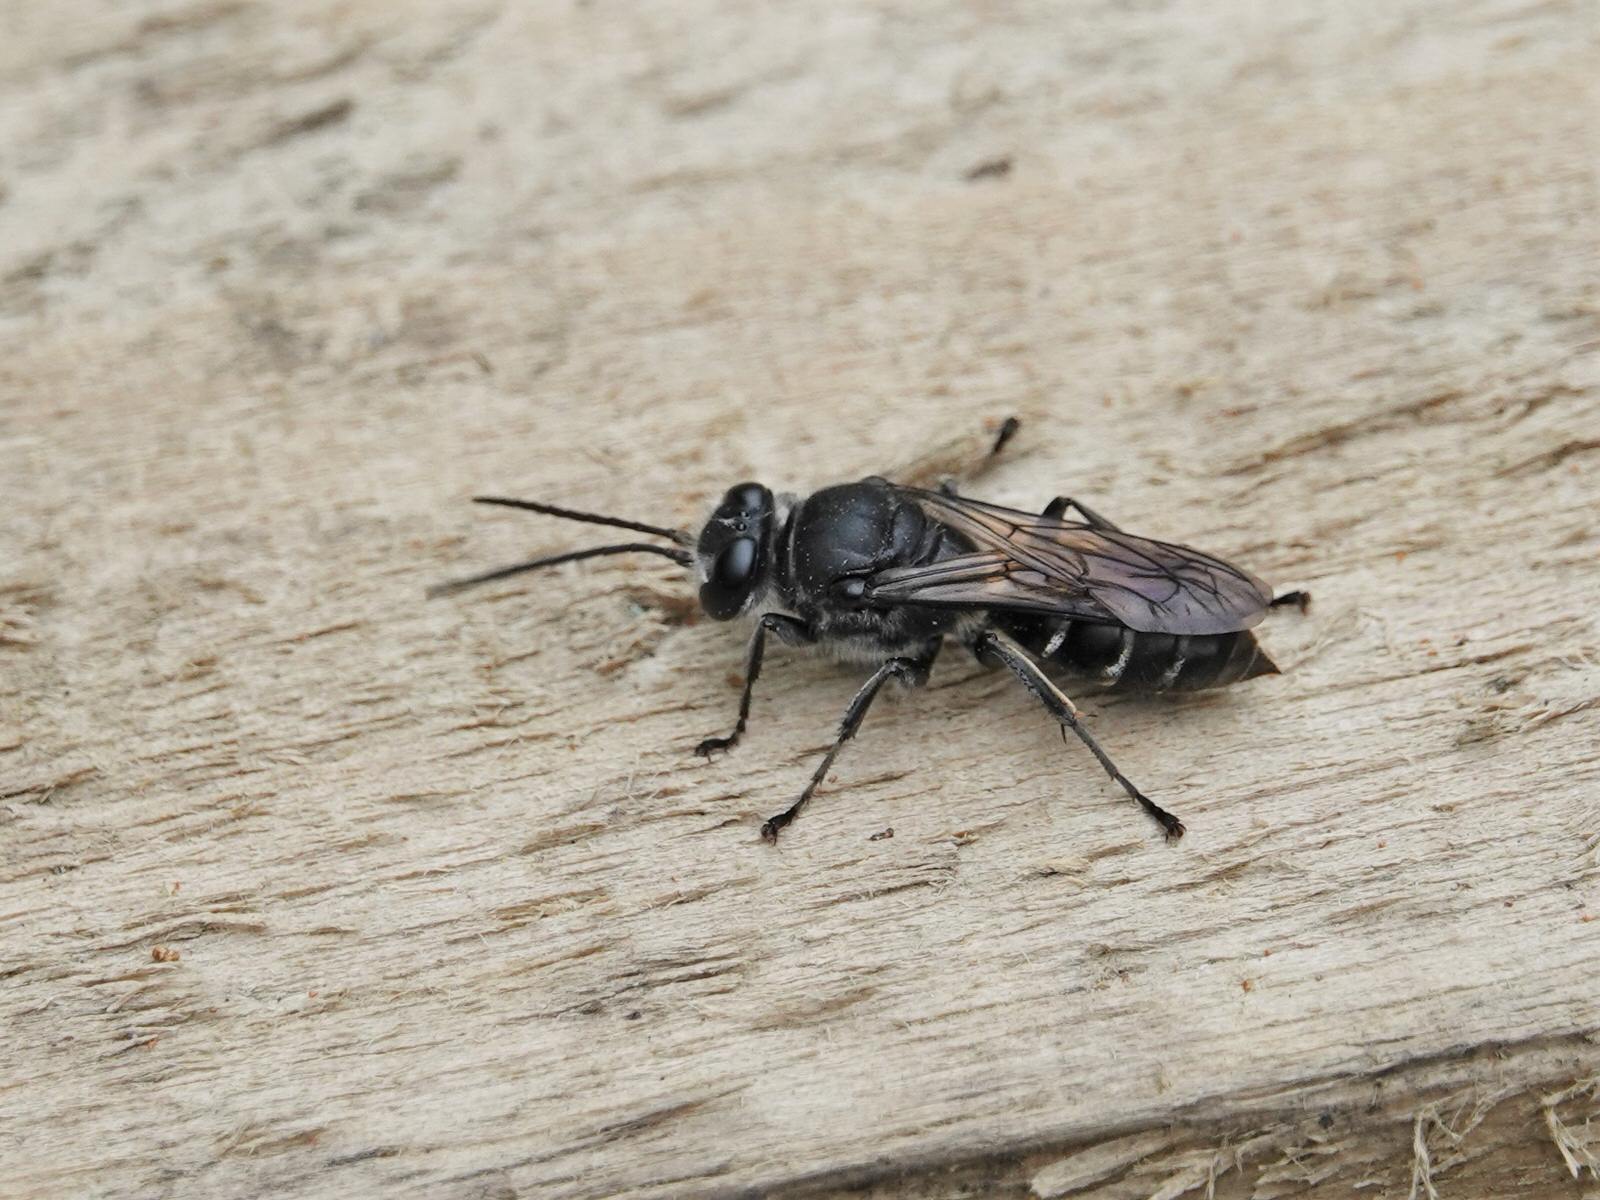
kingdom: Animalia
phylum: Arthropoda
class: Insecta
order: Hymenoptera
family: Crabronidae
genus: Pison
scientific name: Pison spinolae
